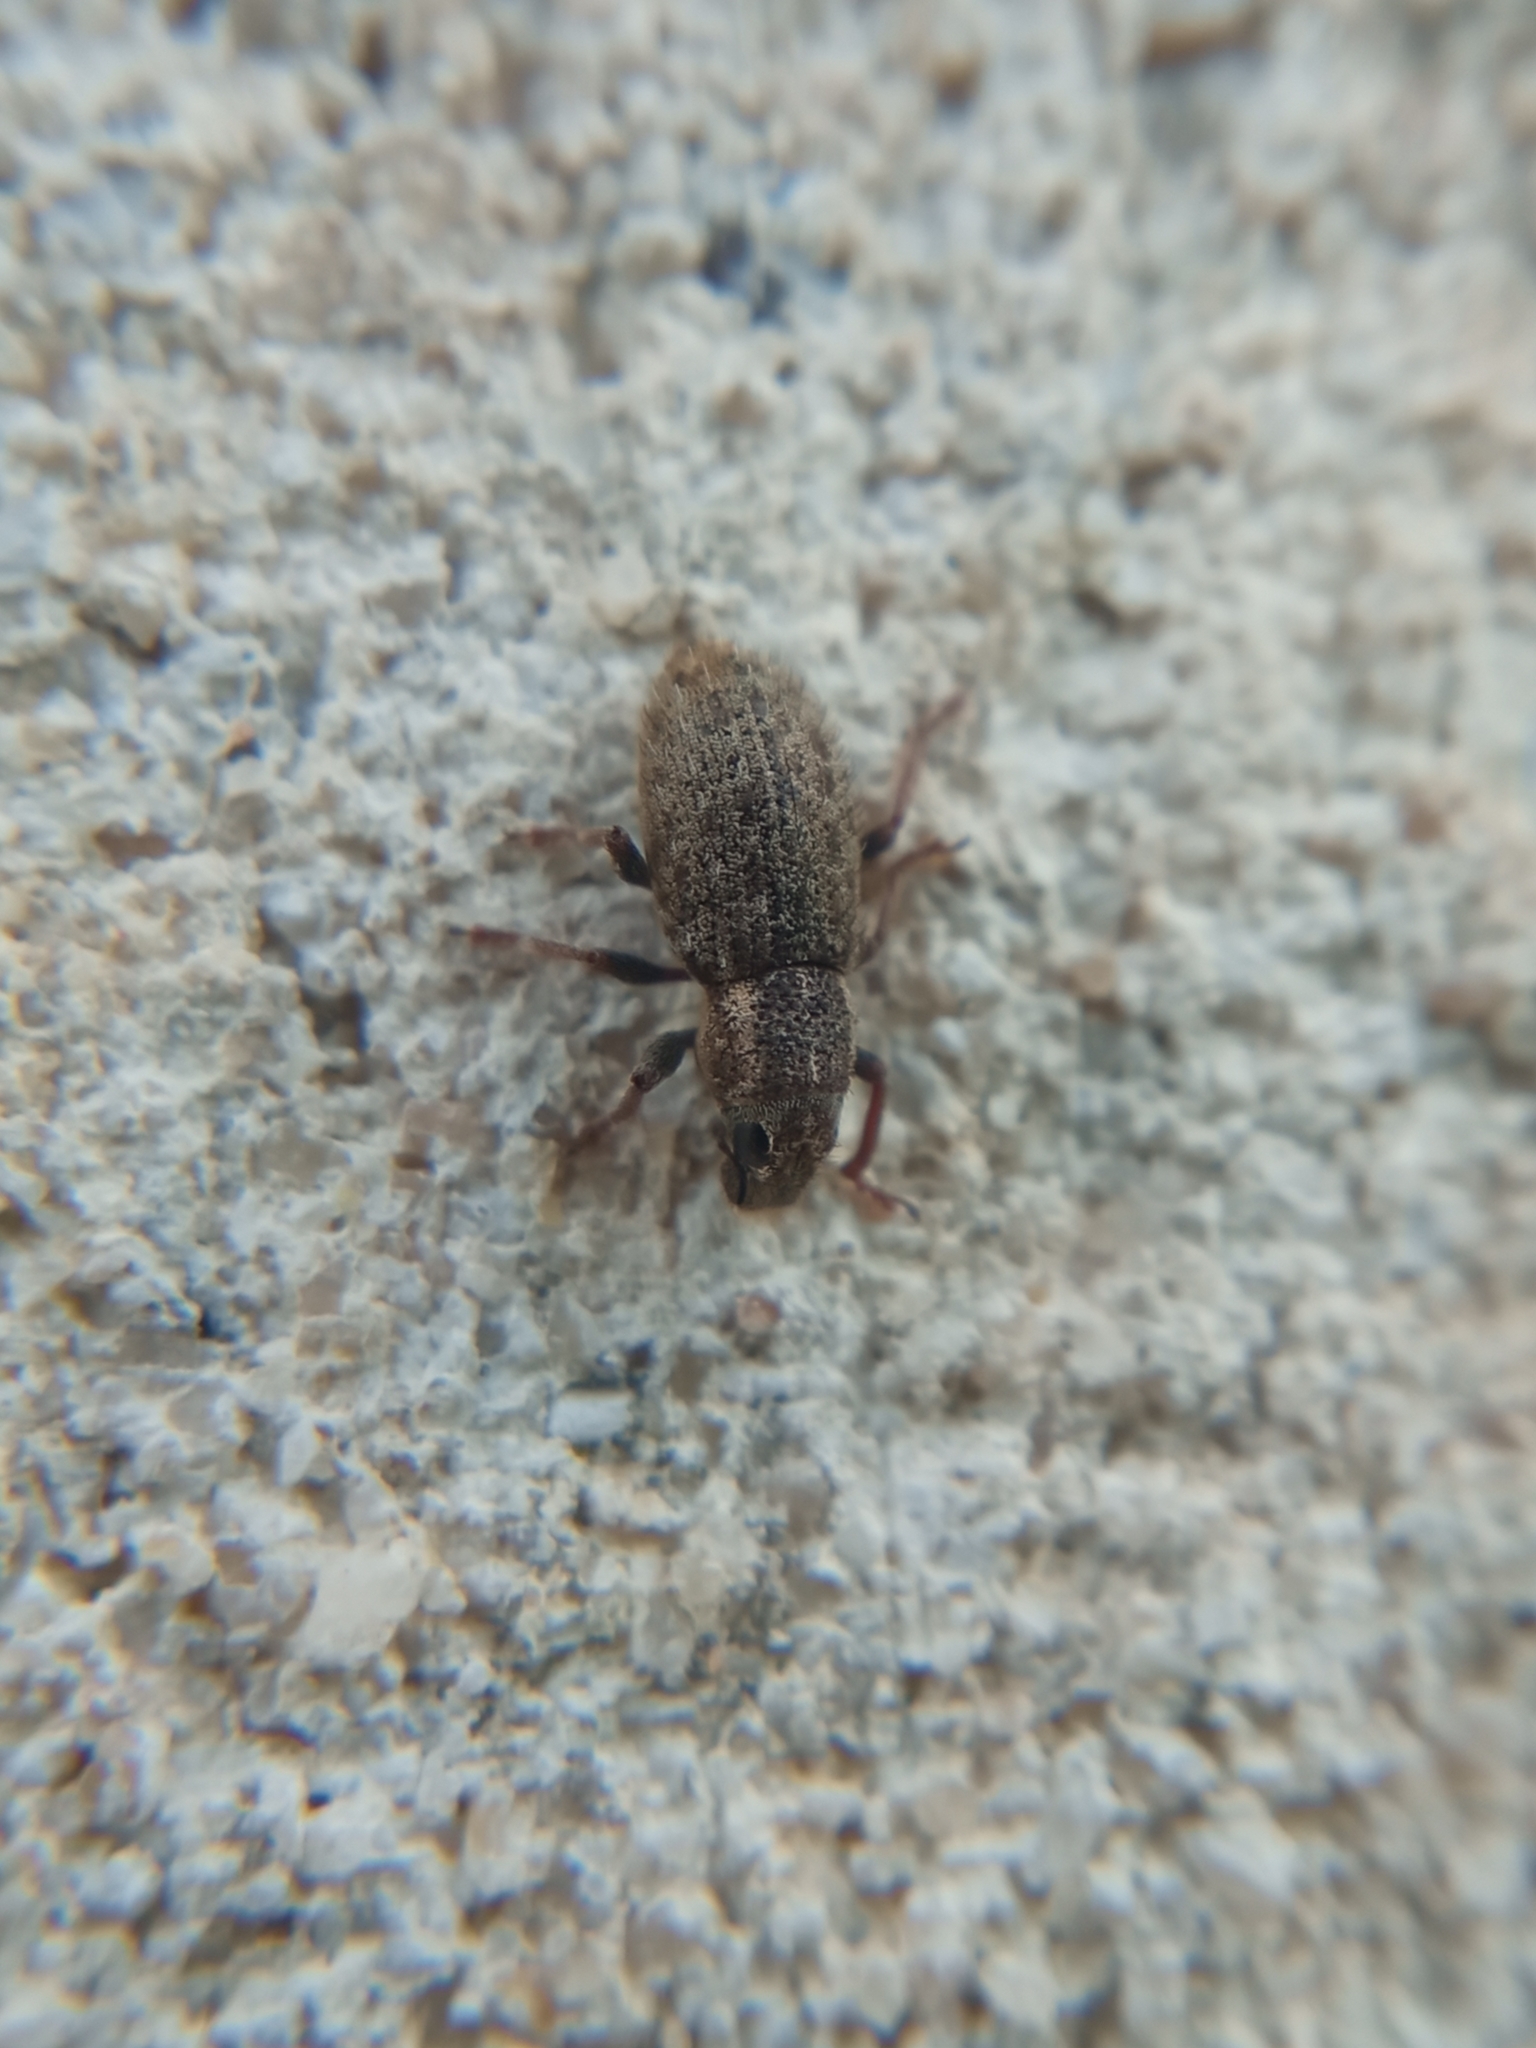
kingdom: Animalia
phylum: Arthropoda
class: Insecta
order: Coleoptera
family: Curculionidae
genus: Sitona
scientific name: Sitona hispidulus
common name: Clover weevil
